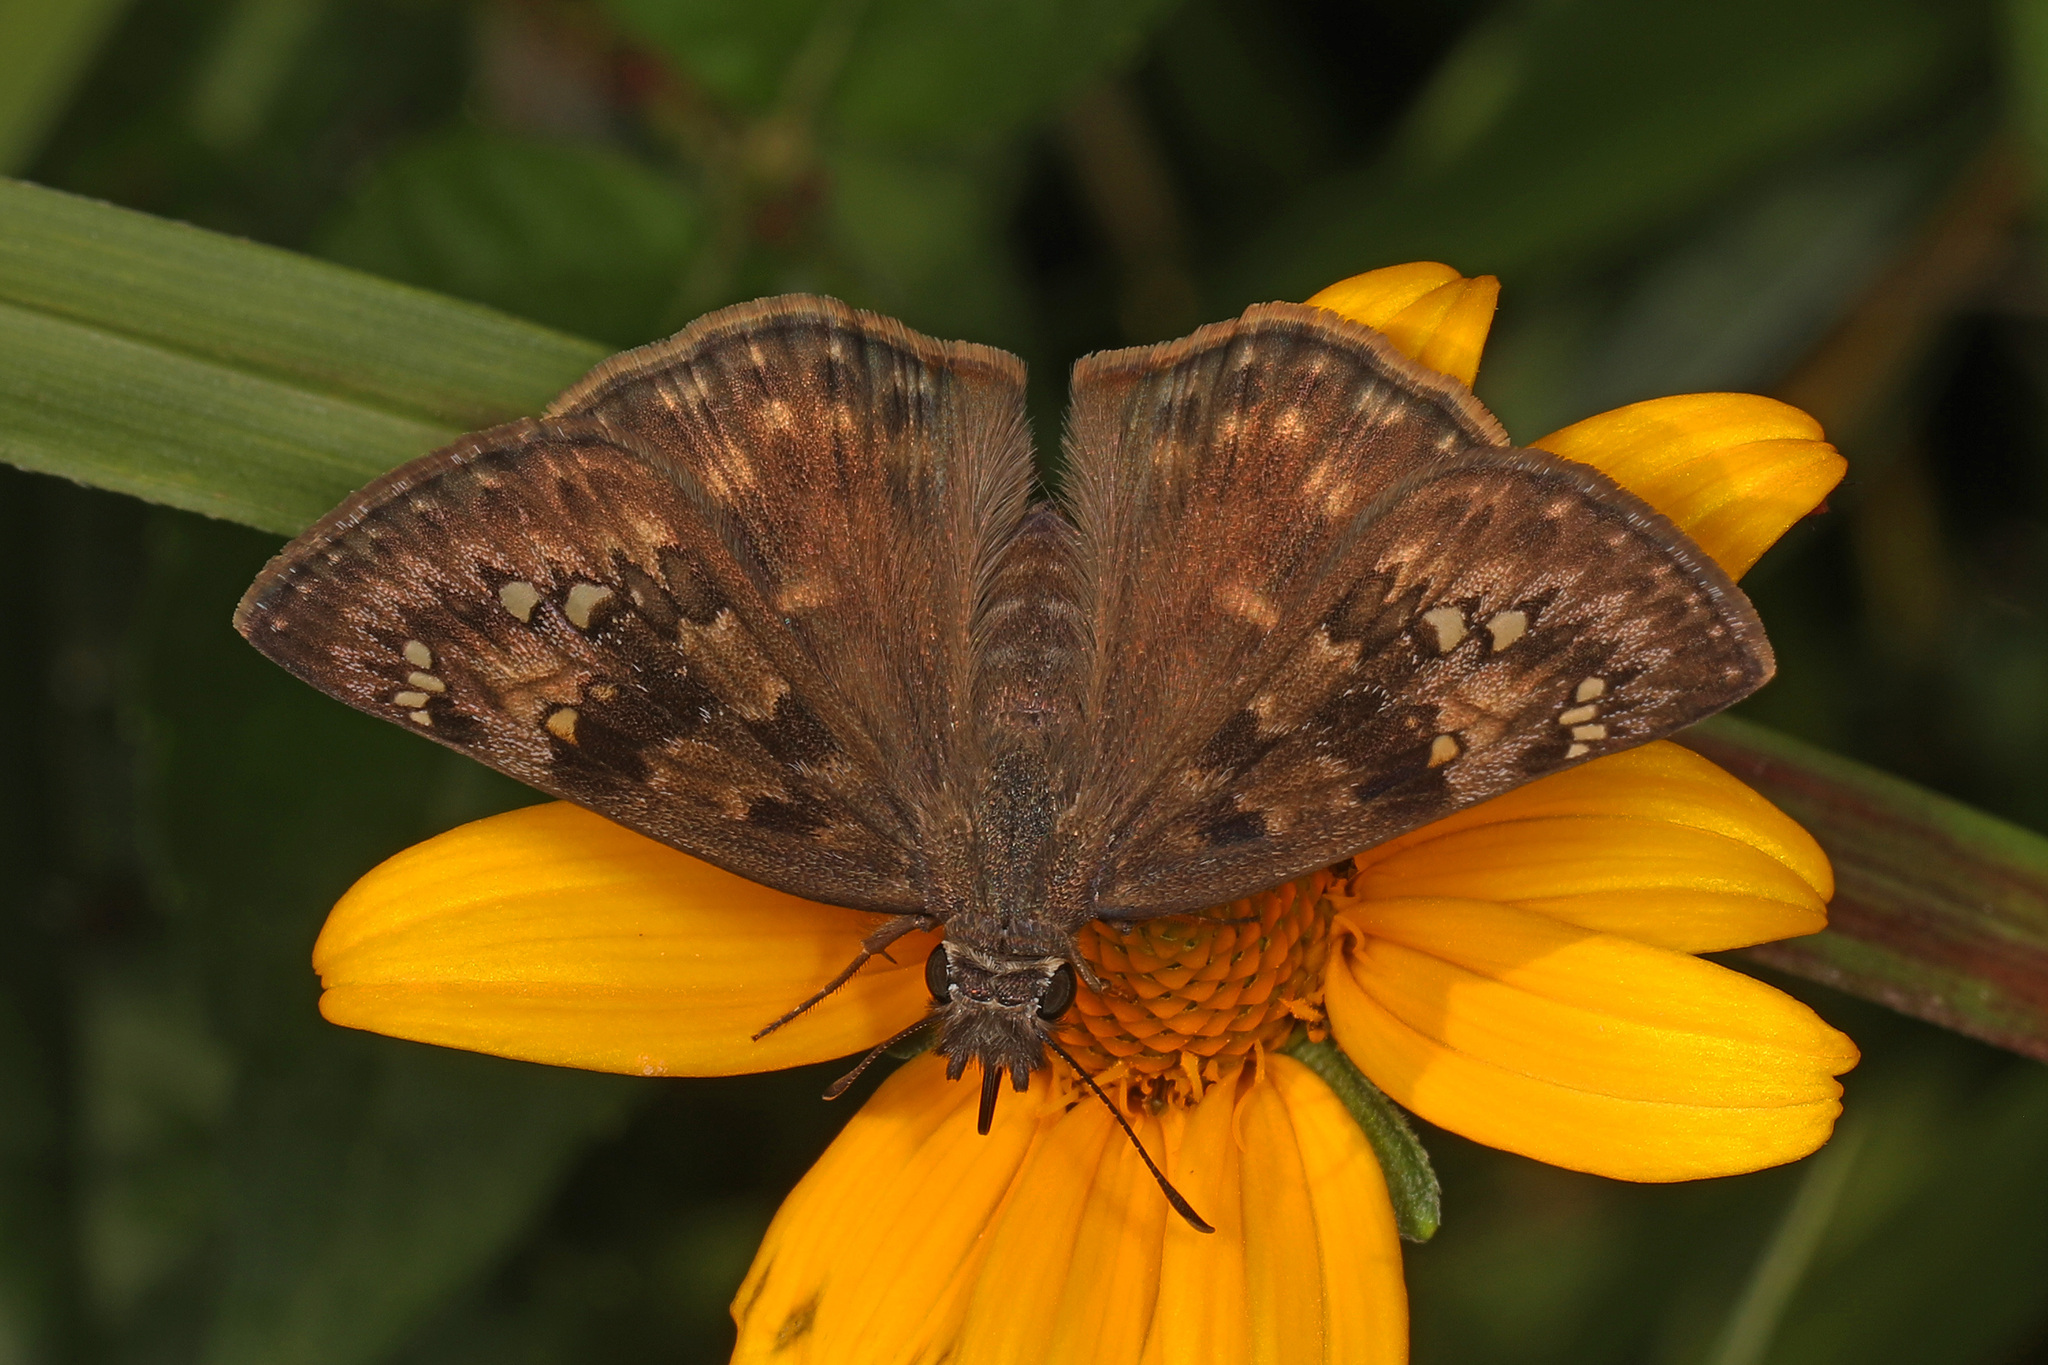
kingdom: Animalia
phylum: Arthropoda
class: Insecta
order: Lepidoptera
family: Hesperiidae
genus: Erynnis
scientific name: Erynnis horatius
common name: Horace's duskywing
